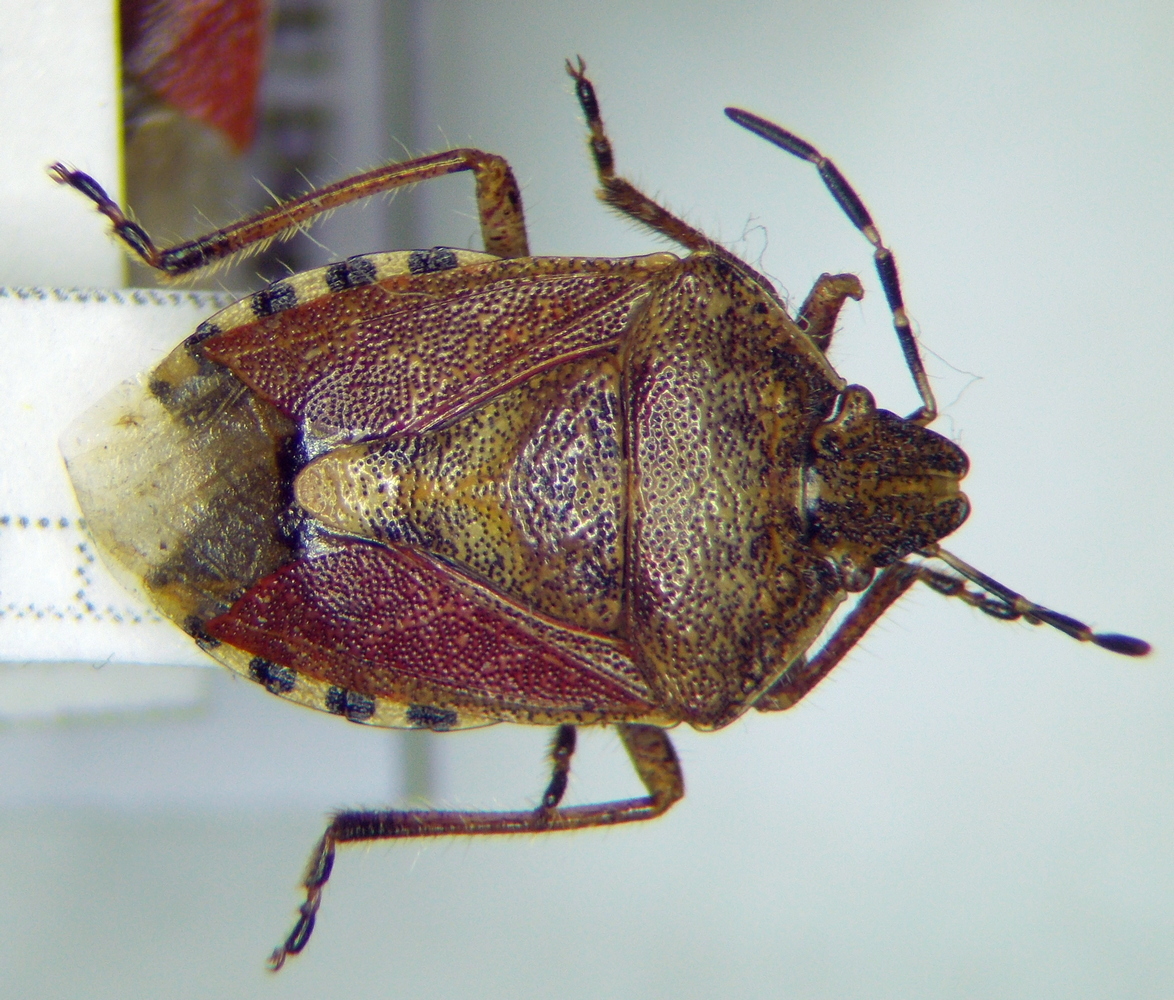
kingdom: Animalia
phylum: Arthropoda
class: Insecta
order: Hemiptera
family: Pentatomidae
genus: Dolycoris
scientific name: Dolycoris baccarum
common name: Sloe bug
